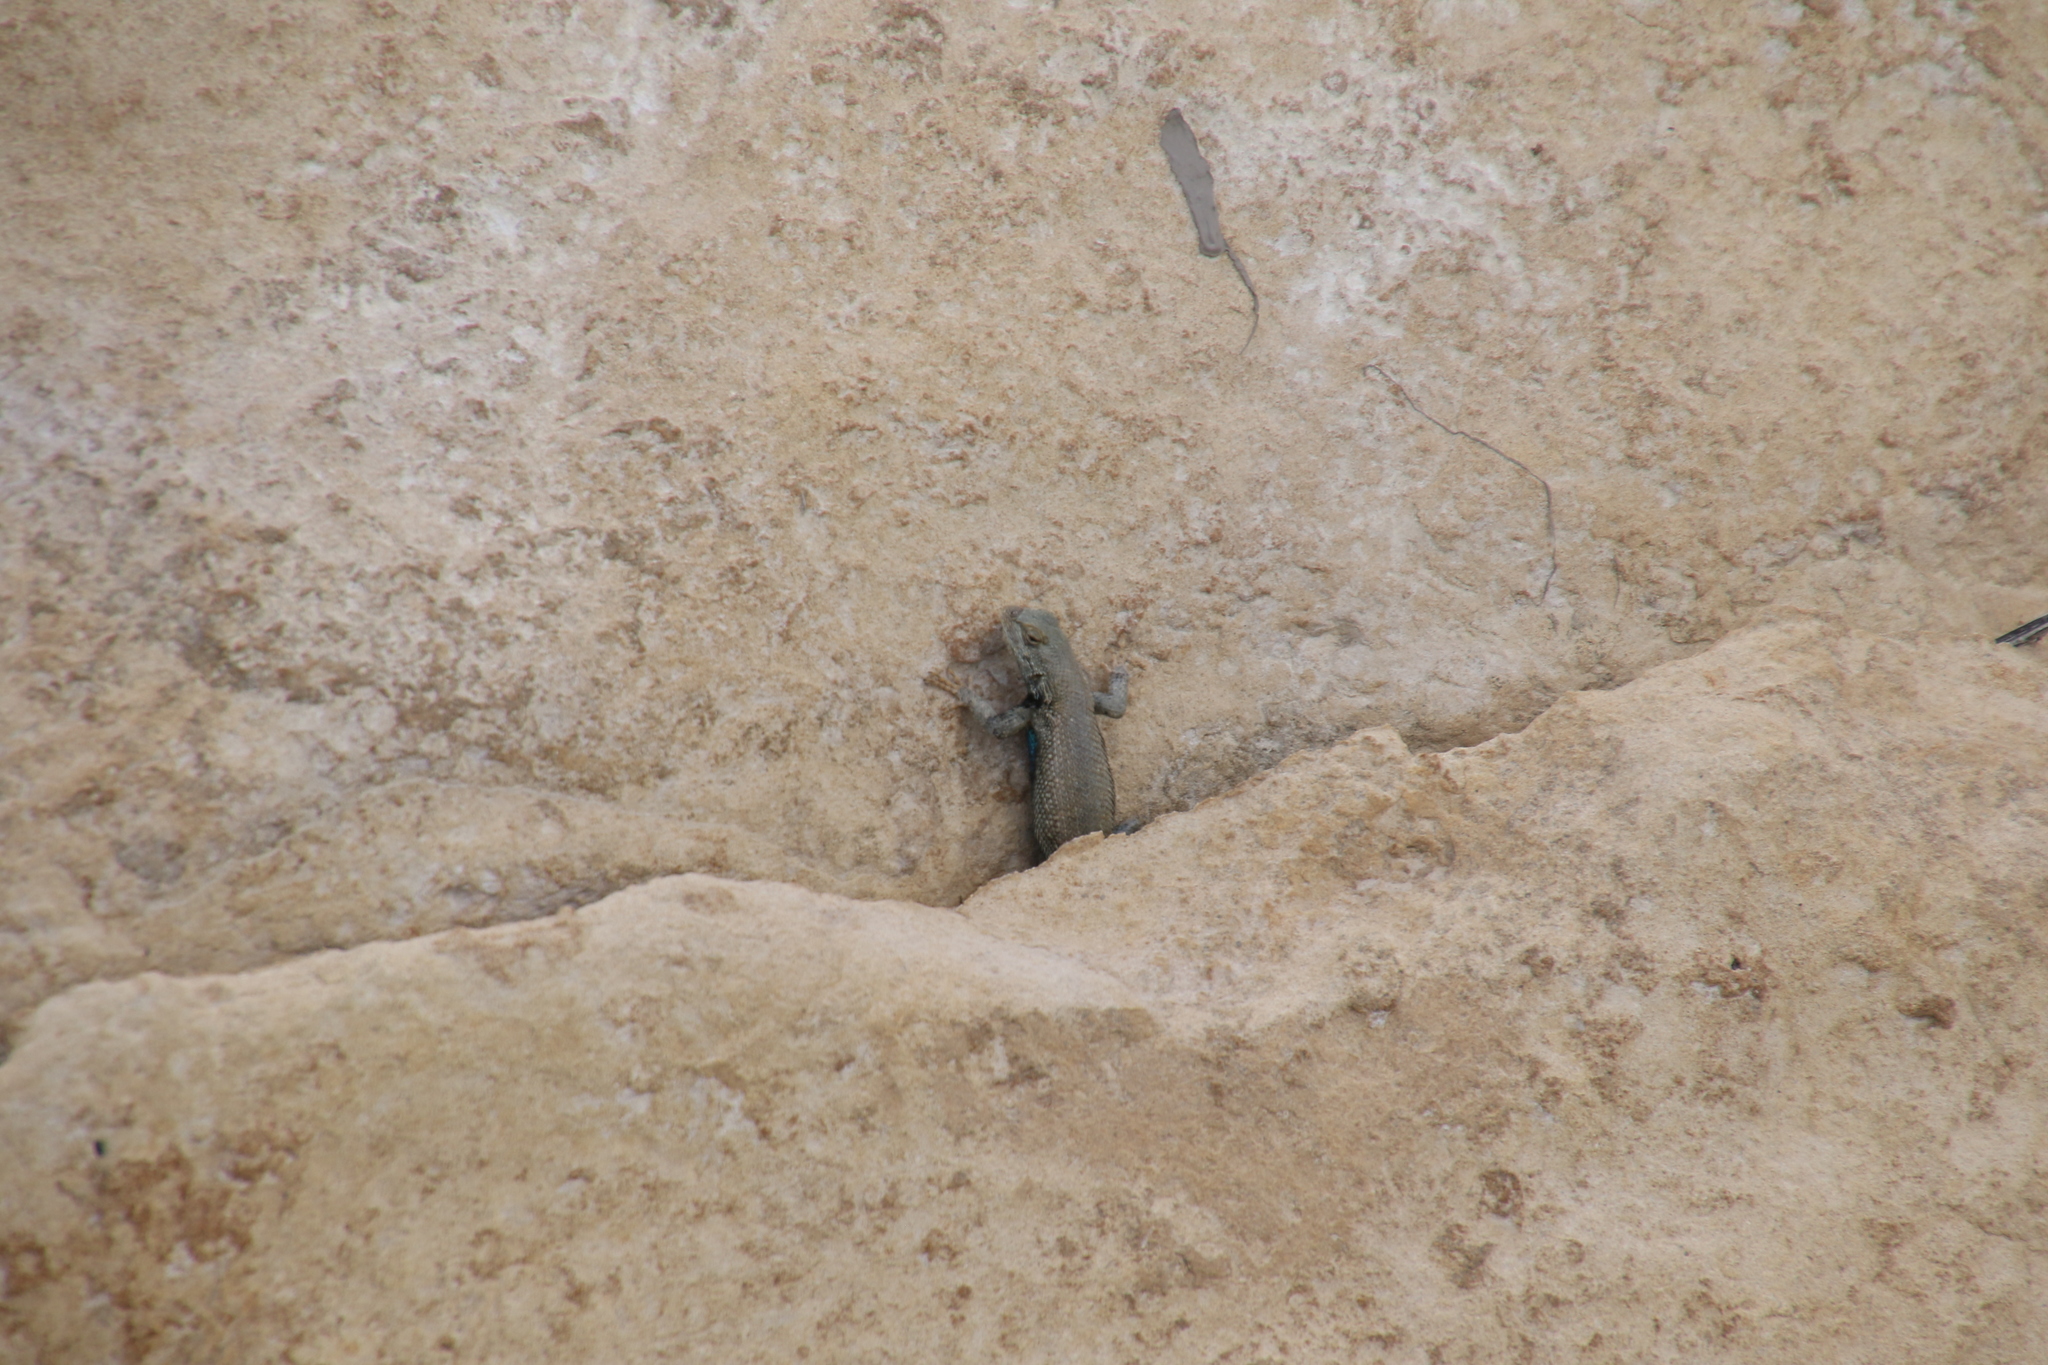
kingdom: Animalia
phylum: Chordata
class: Squamata
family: Phrynosomatidae
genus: Sceloporus
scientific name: Sceloporus consobrinus
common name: Southern prairie lizard
